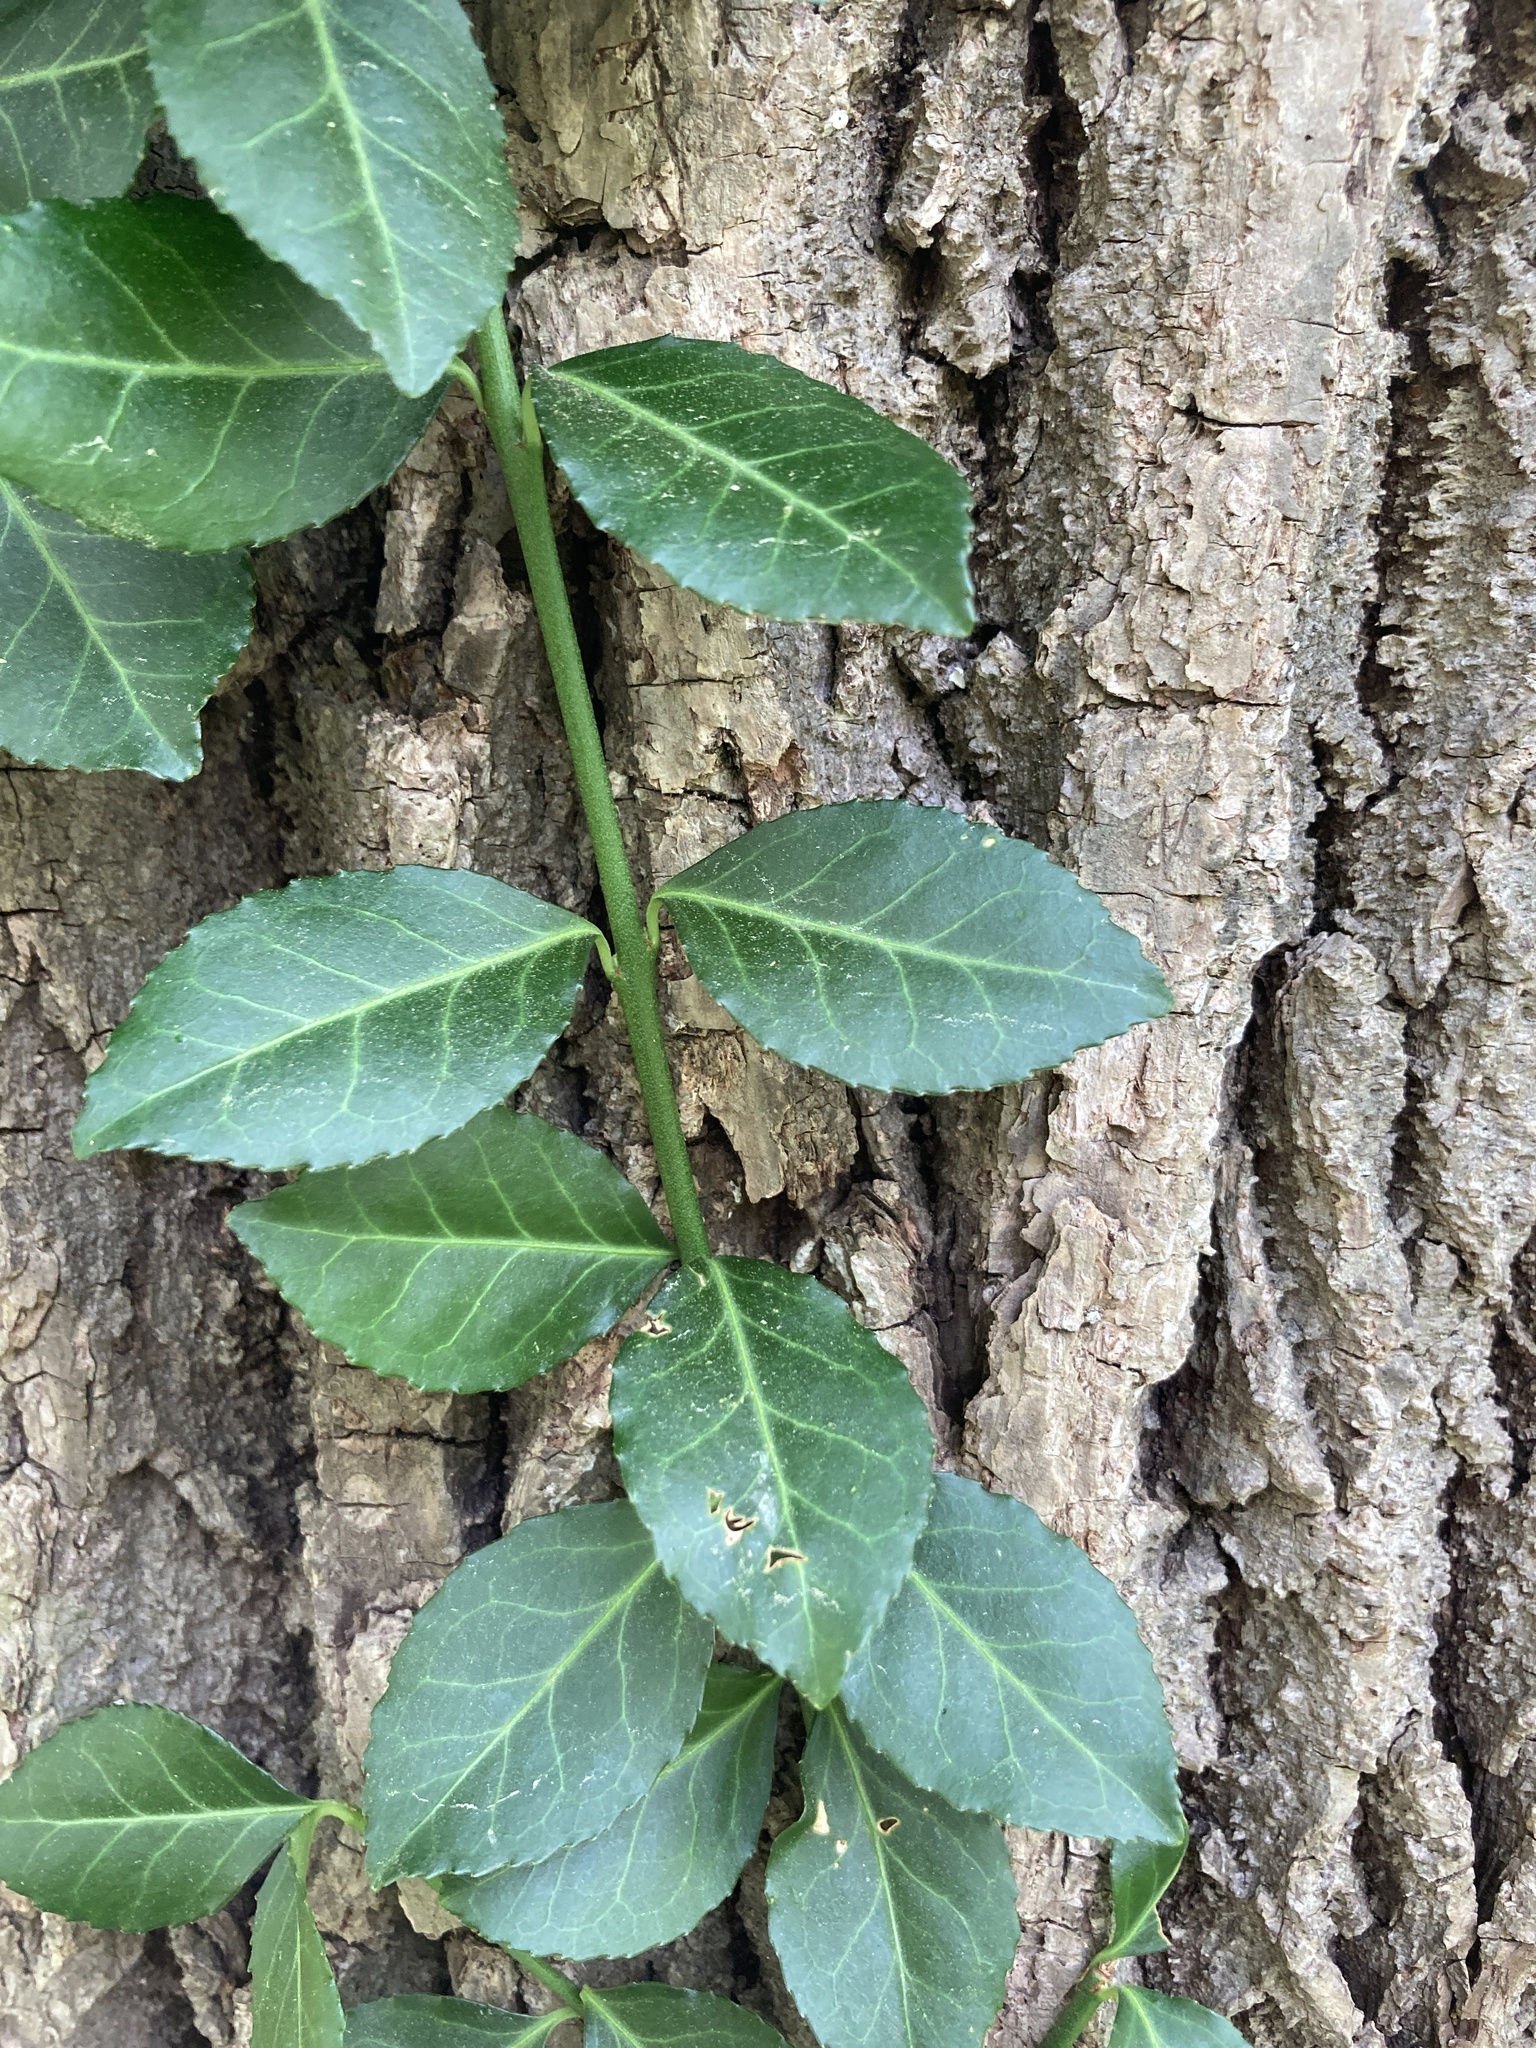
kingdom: Plantae
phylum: Tracheophyta
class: Magnoliopsida
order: Celastrales
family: Celastraceae
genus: Euonymus
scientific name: Euonymus fortunei
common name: Climbing euonymus
